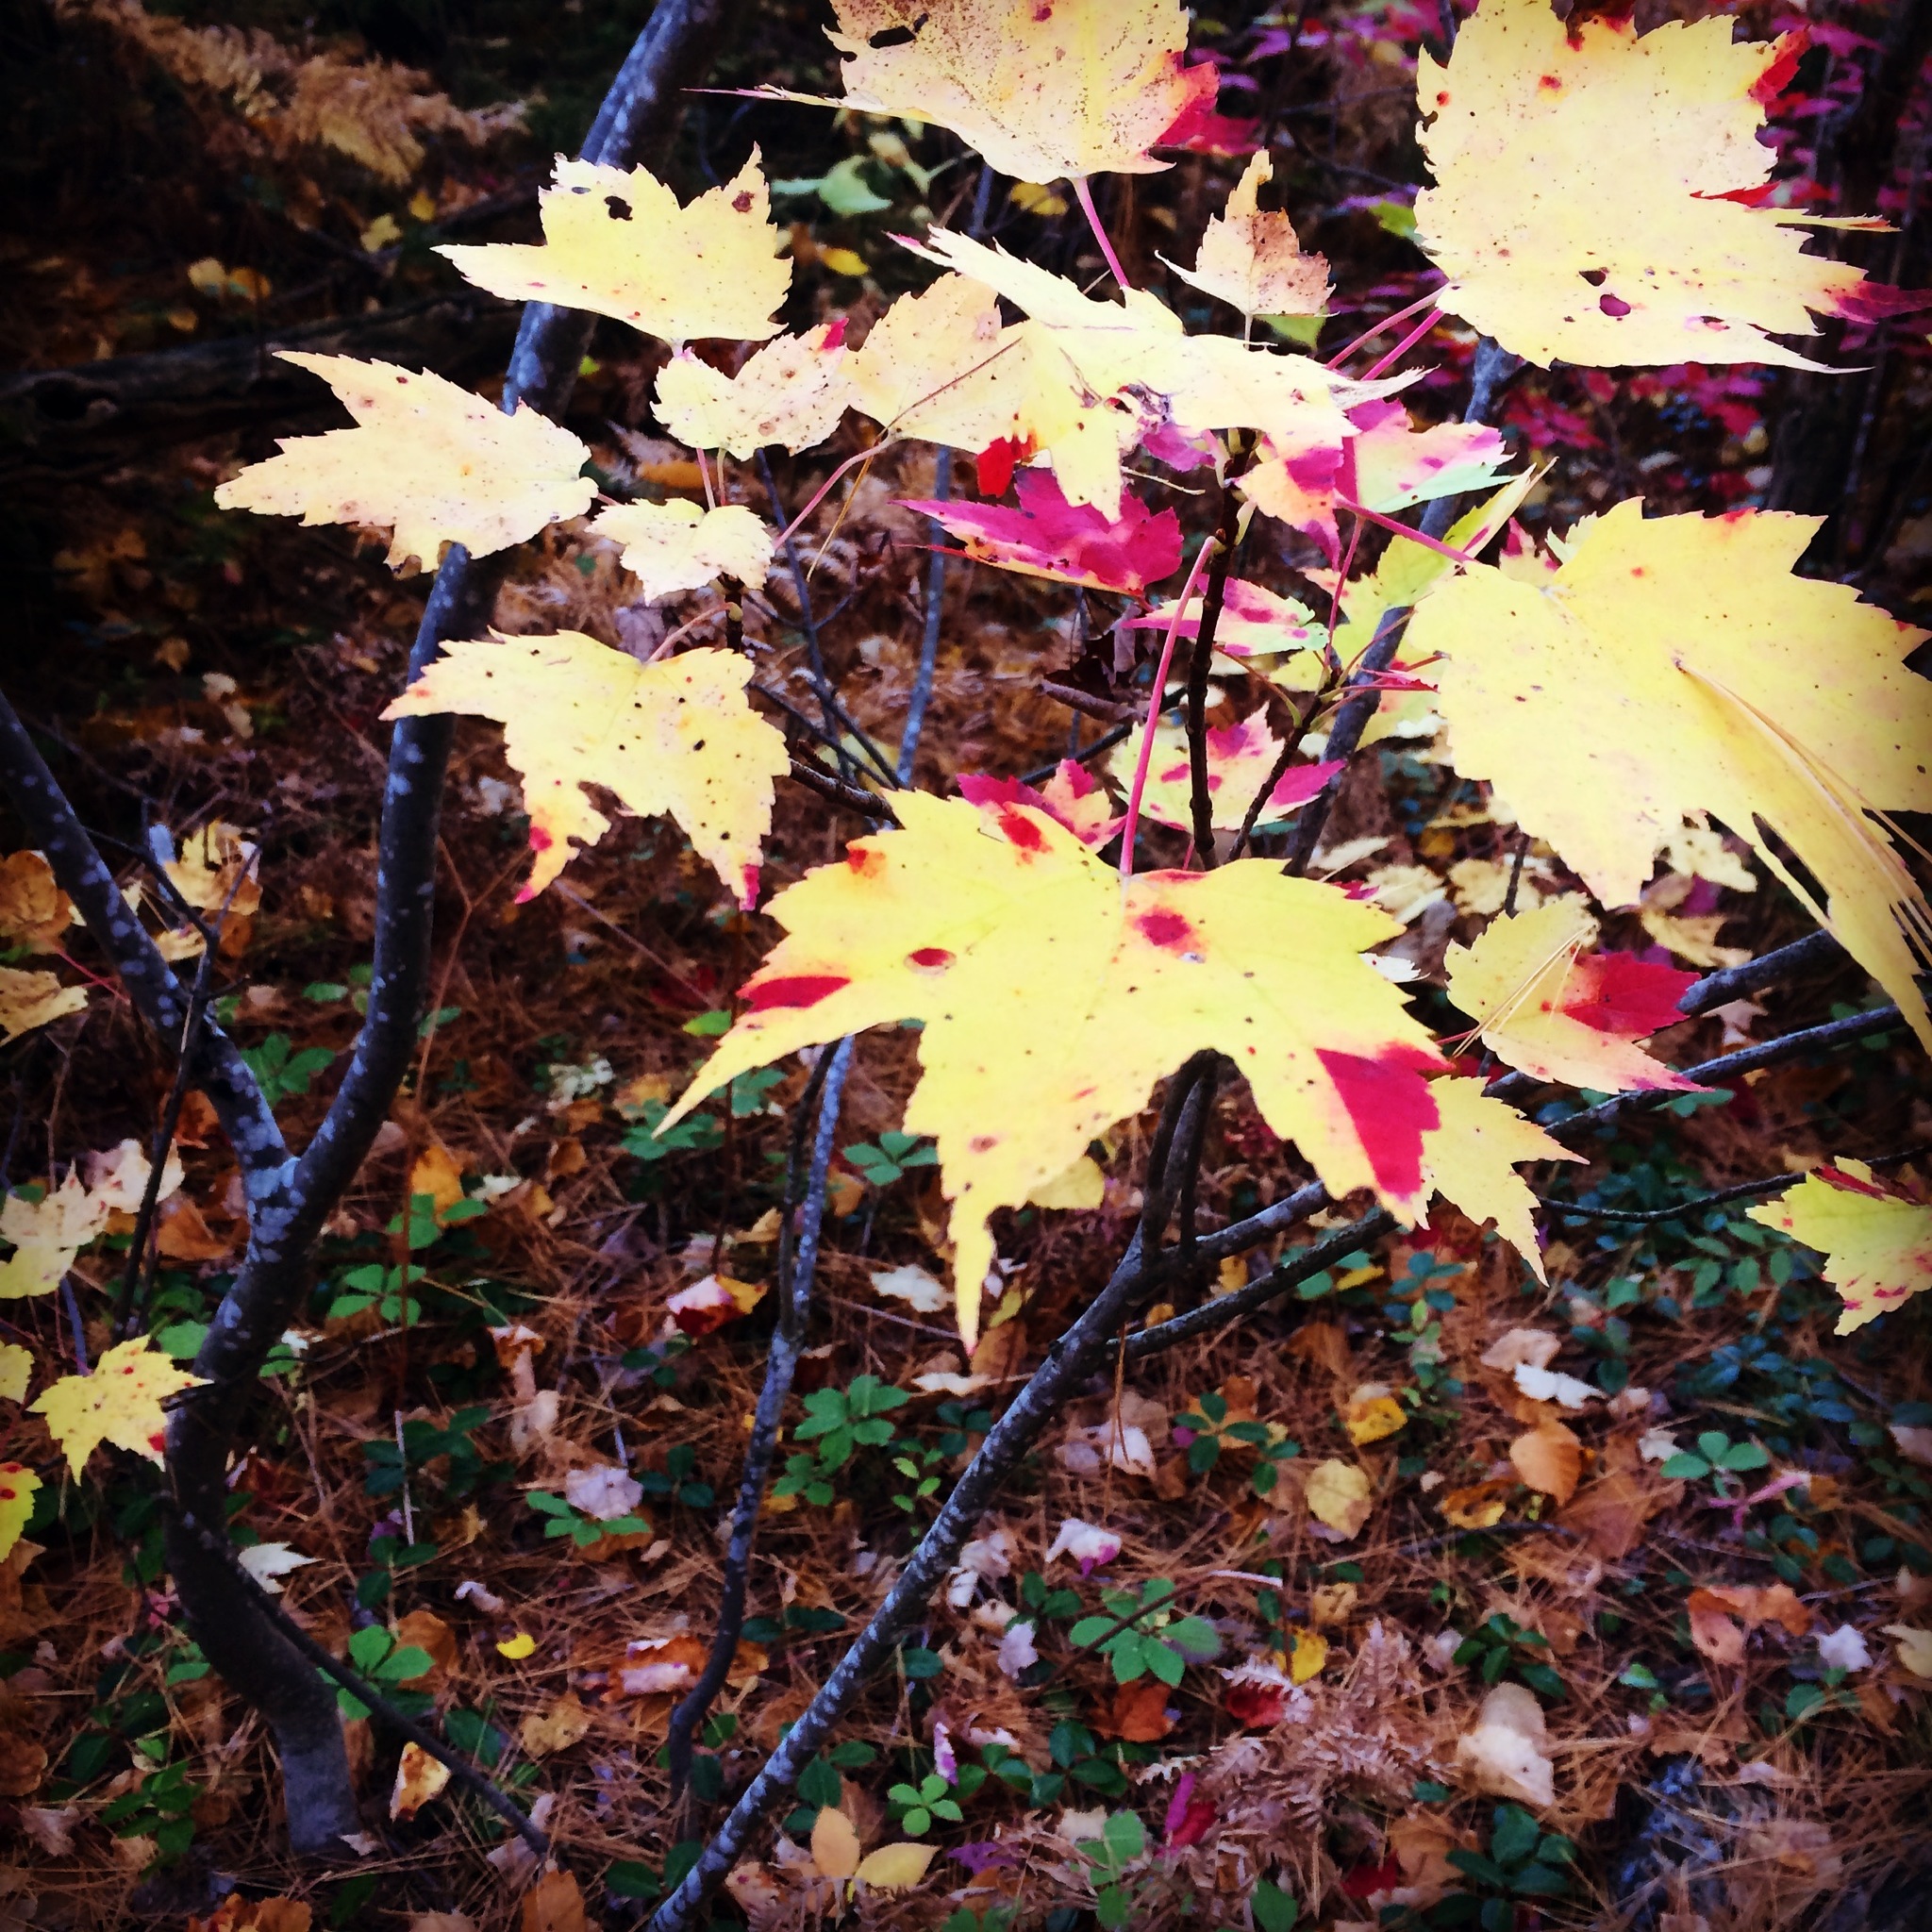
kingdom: Plantae
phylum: Tracheophyta
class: Magnoliopsida
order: Sapindales
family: Sapindaceae
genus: Acer
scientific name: Acer rubrum
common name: Red maple
